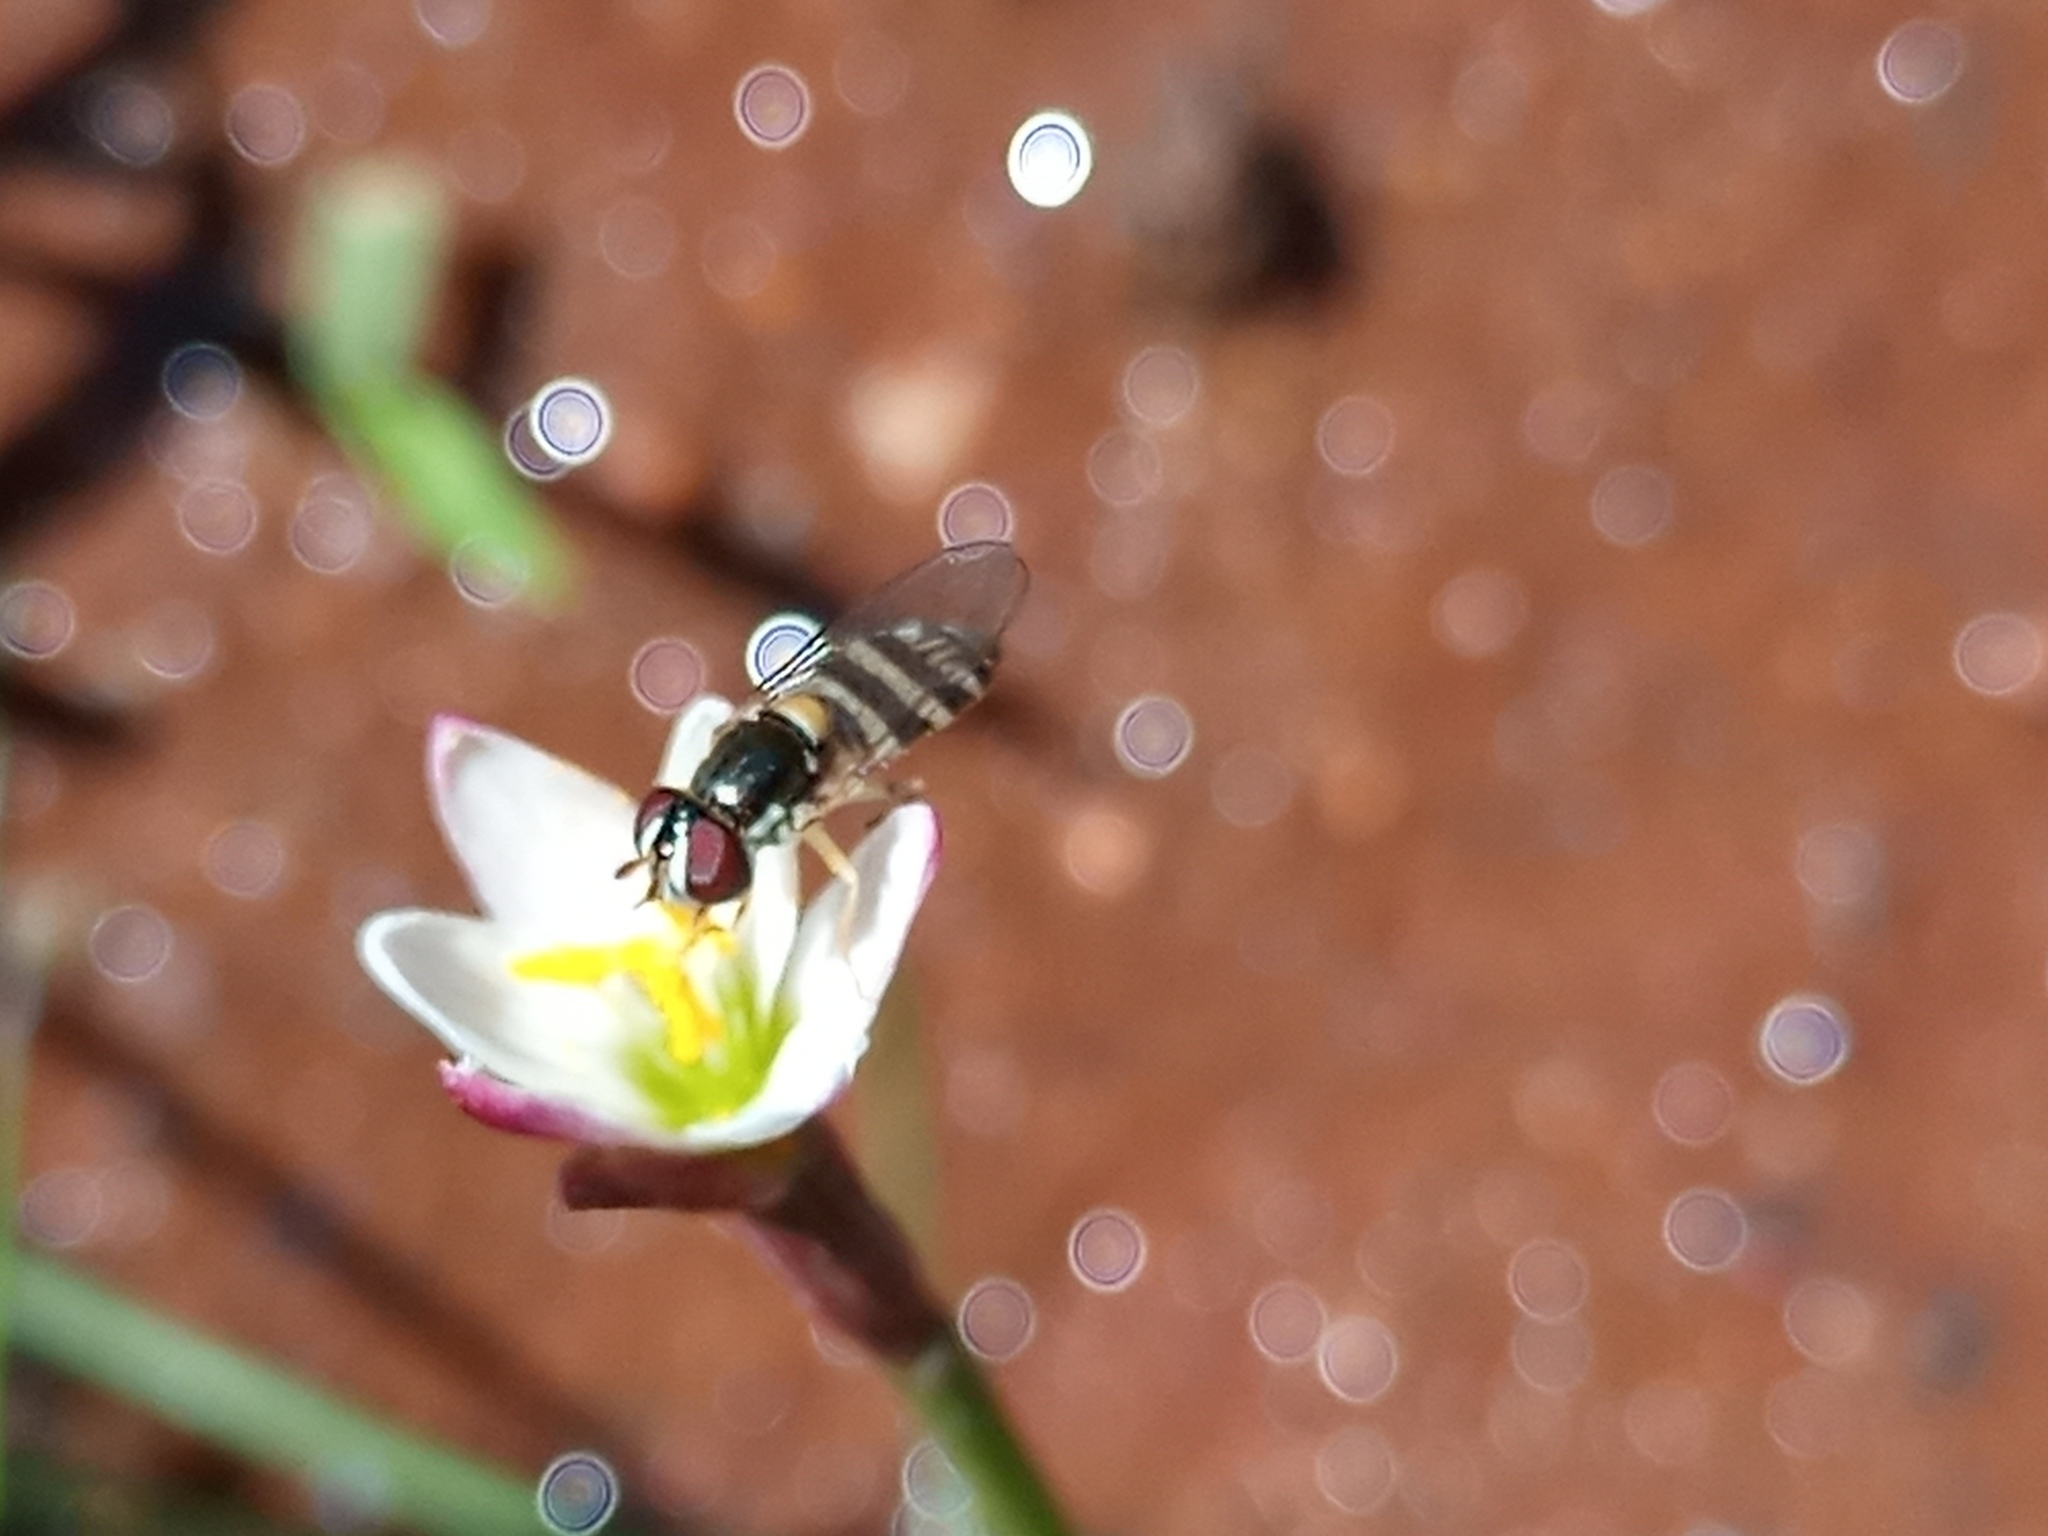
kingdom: Plantae
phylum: Tracheophyta
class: Liliopsida
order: Asparagales
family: Amaryllidaceae
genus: Zephyranthes
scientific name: Zephyranthes minima
